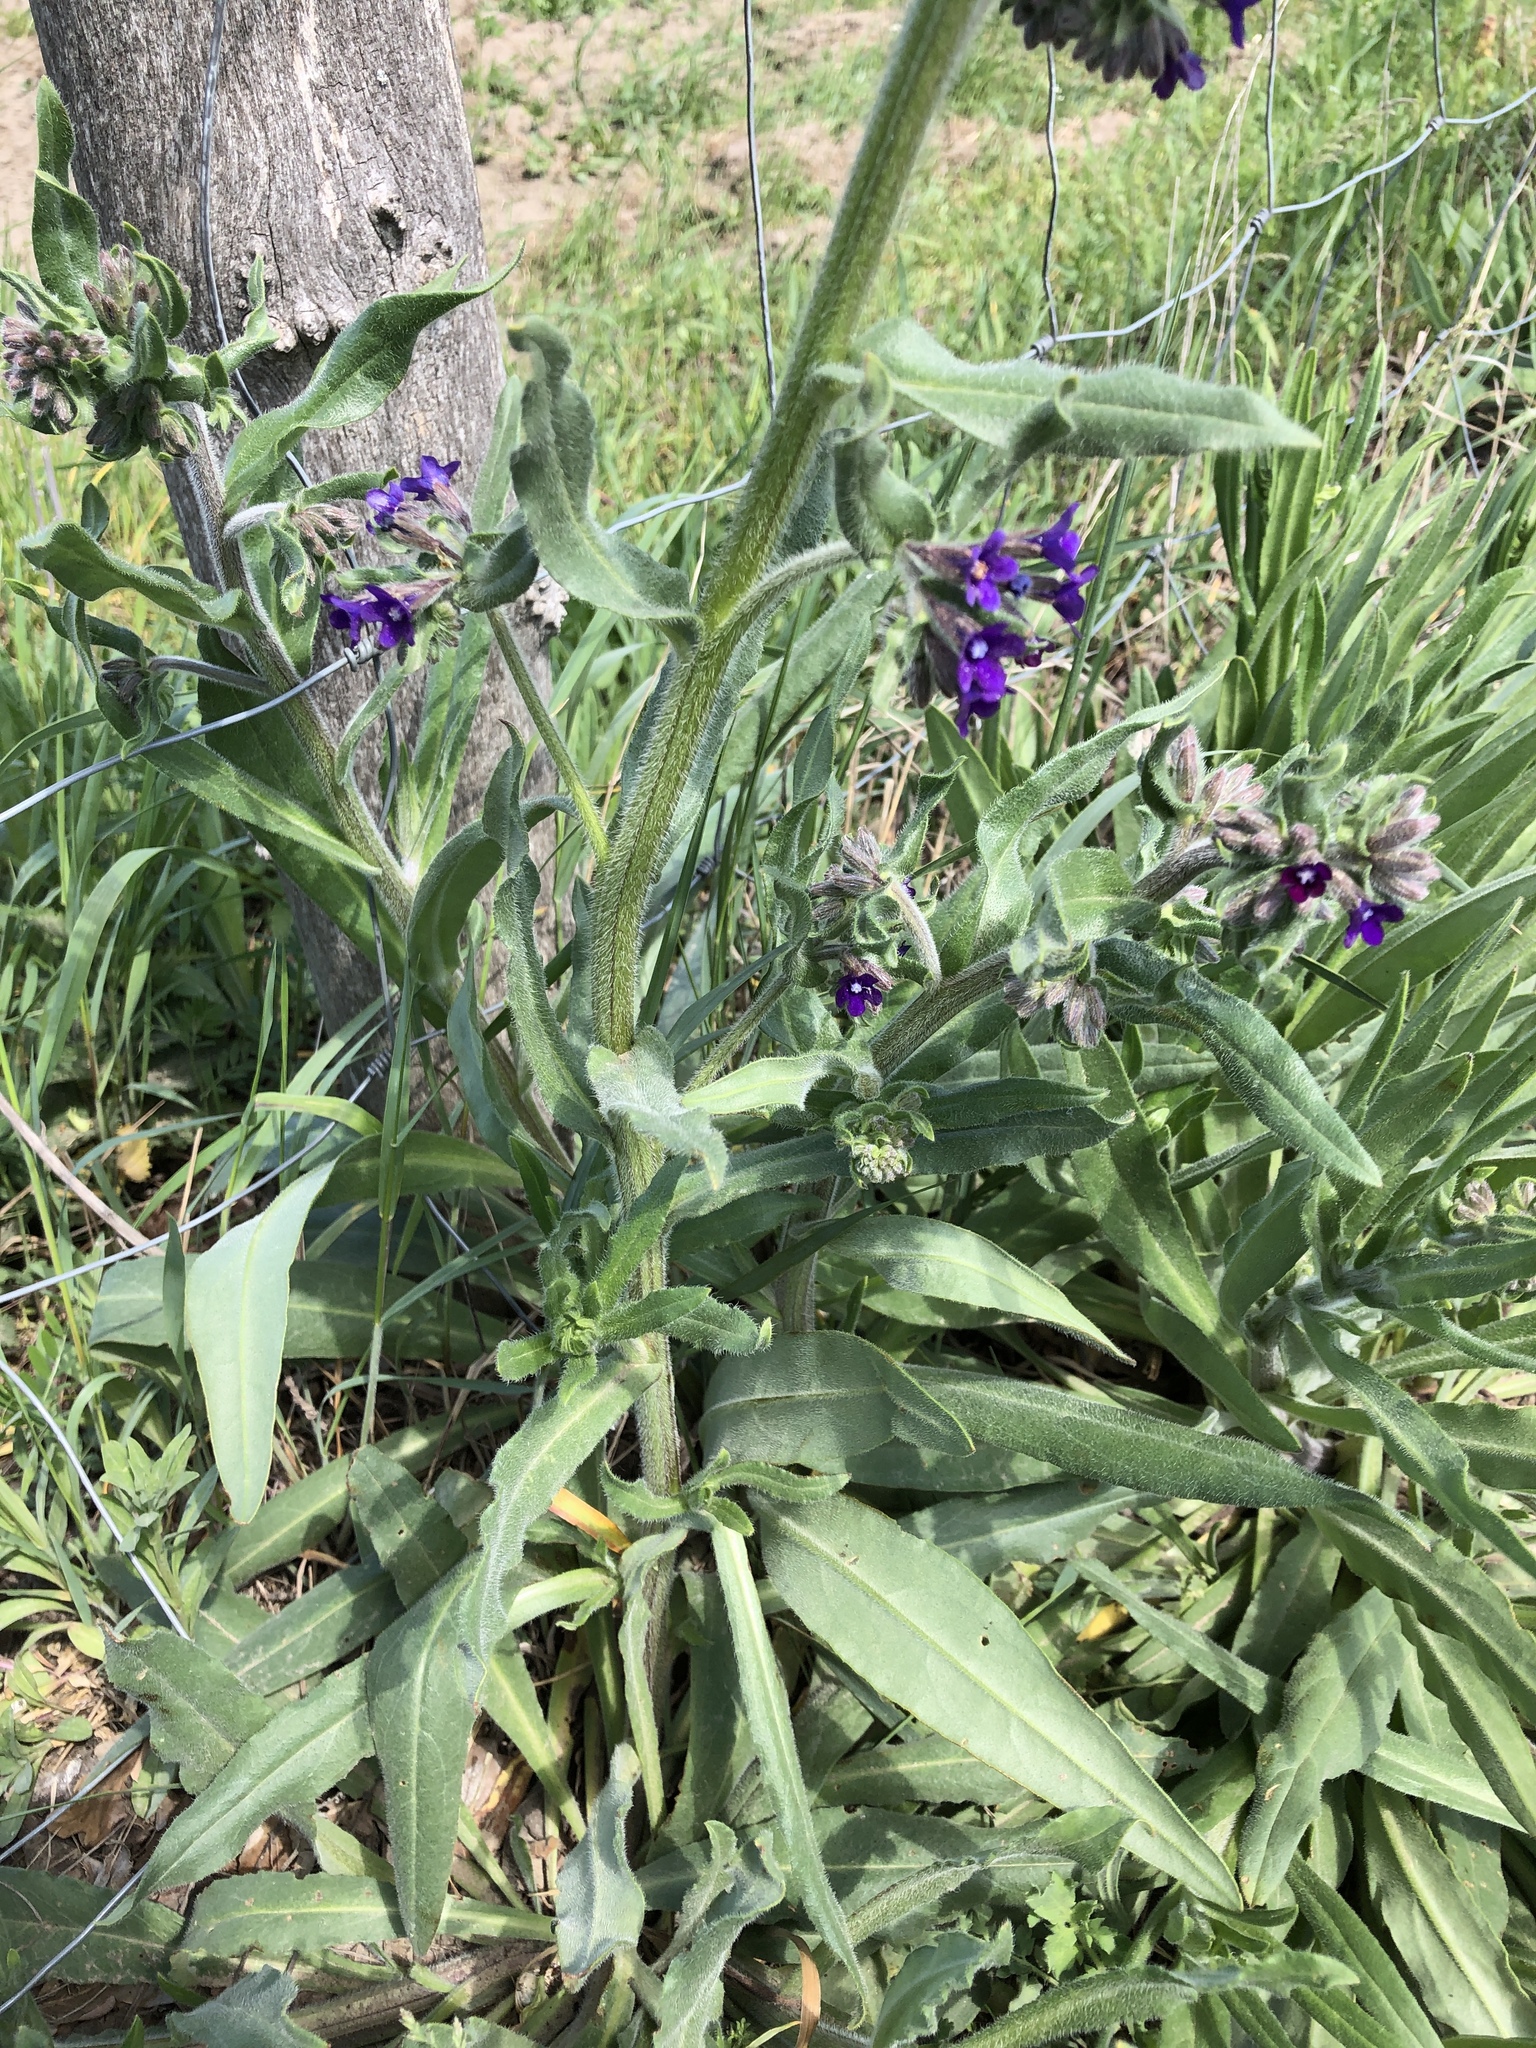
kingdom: Plantae
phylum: Tracheophyta
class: Magnoliopsida
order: Boraginales
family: Boraginaceae
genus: Anchusa
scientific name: Anchusa officinalis
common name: Alkanet
